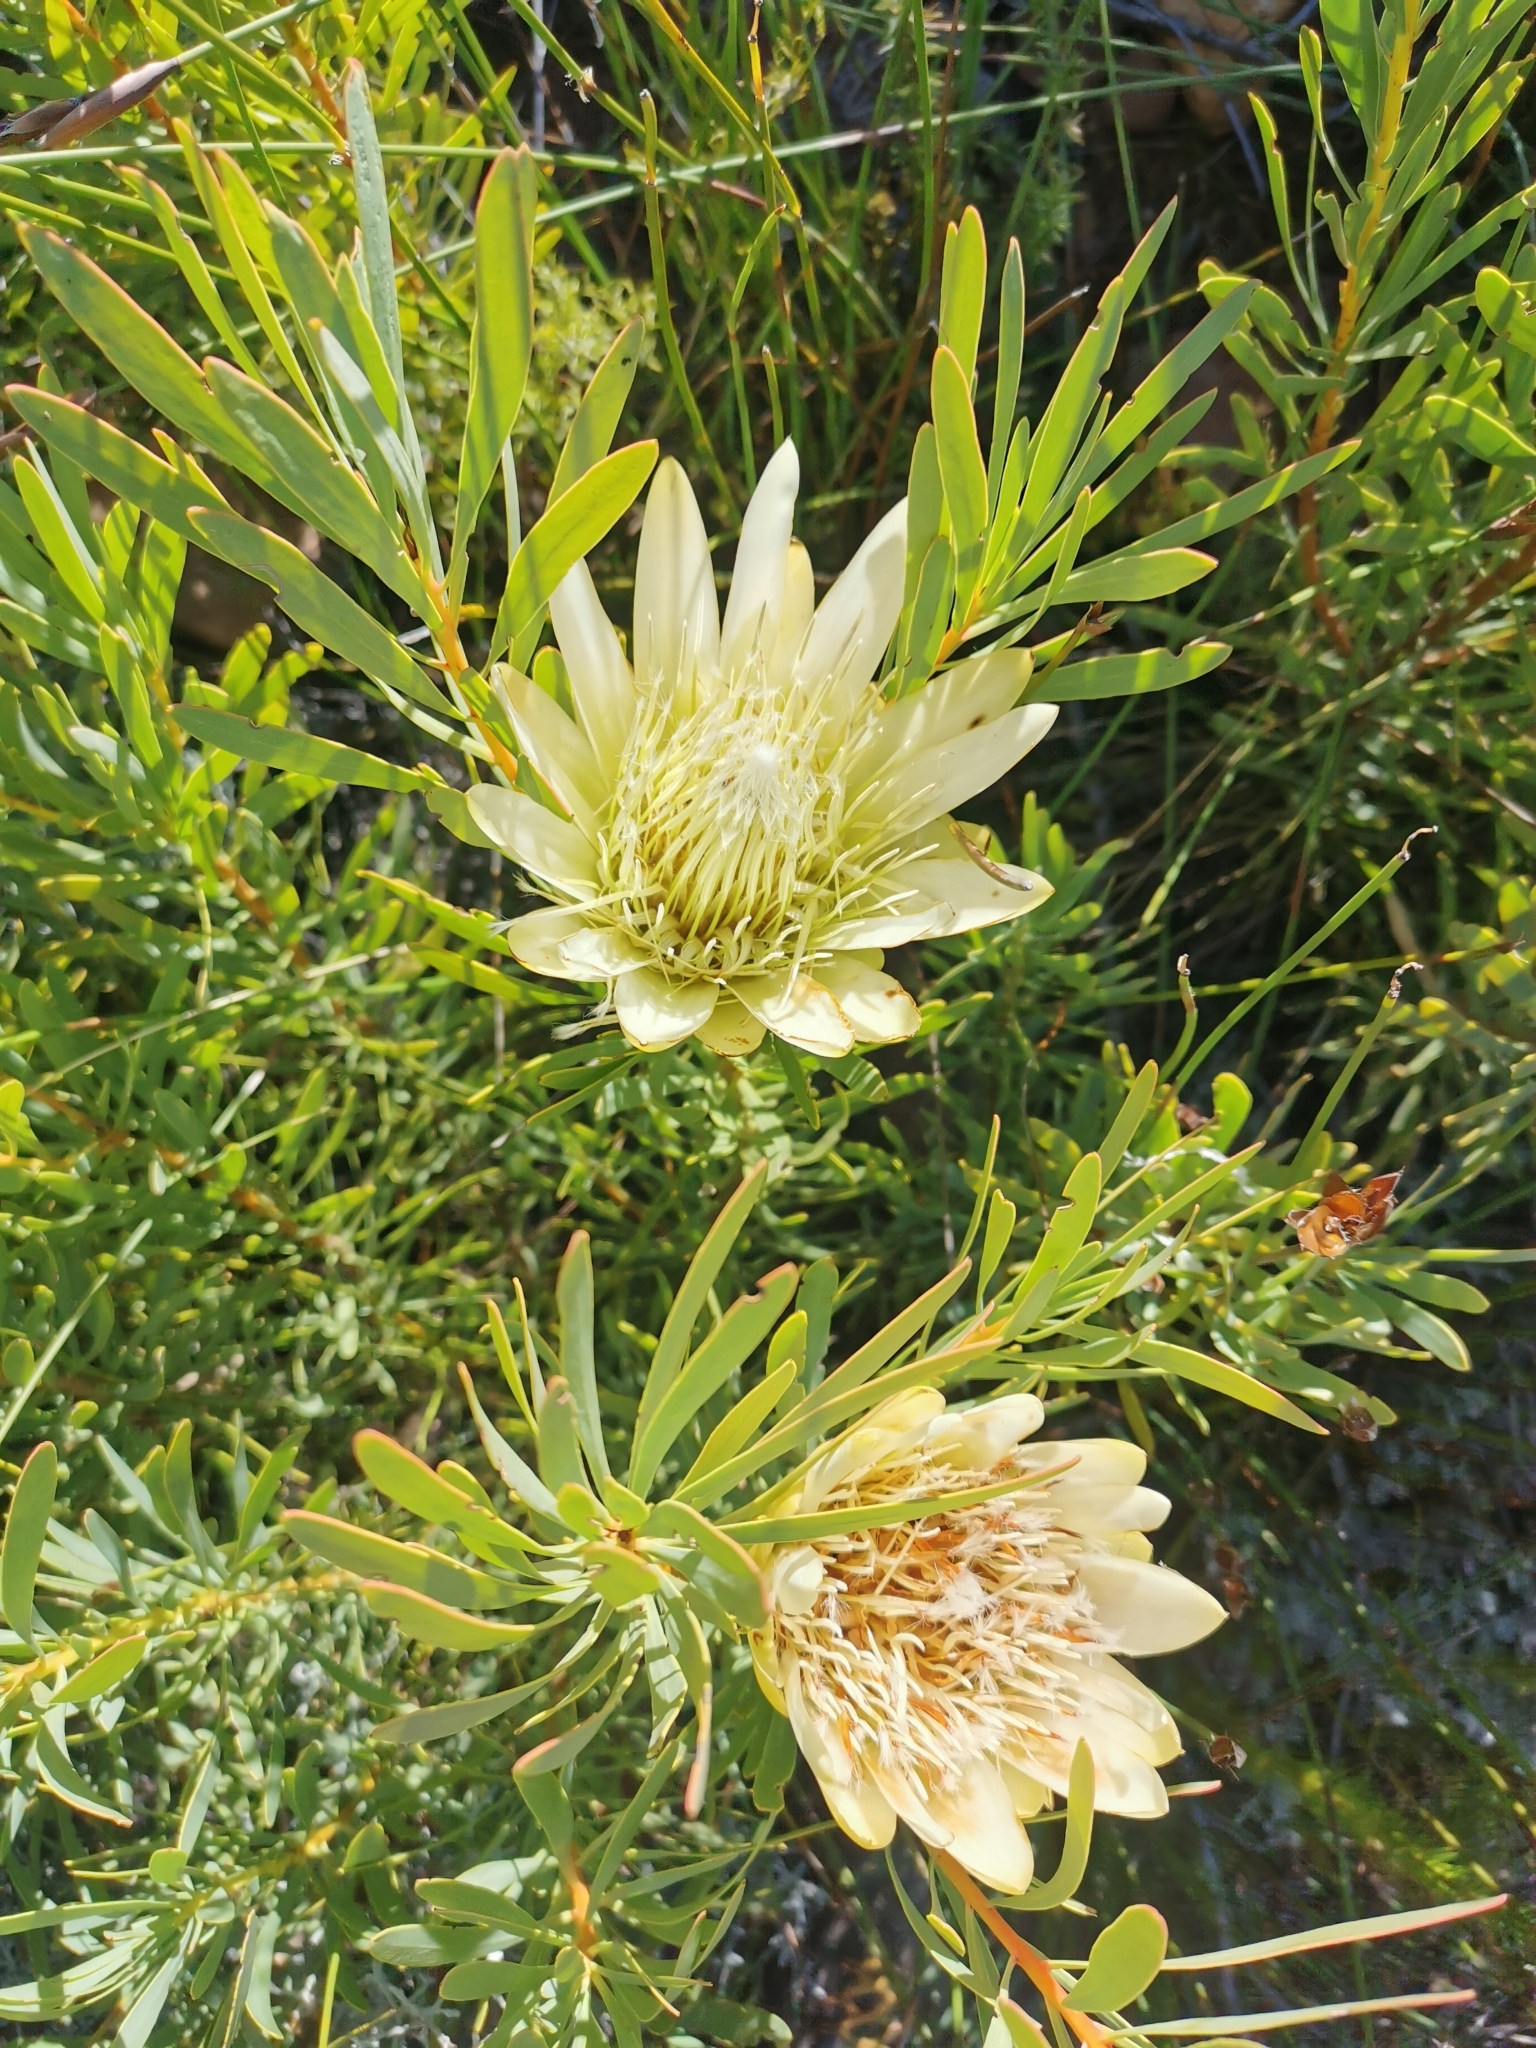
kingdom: Plantae
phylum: Tracheophyta
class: Magnoliopsida
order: Proteales
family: Proteaceae
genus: Protea
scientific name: Protea repens
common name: Sugarbush
